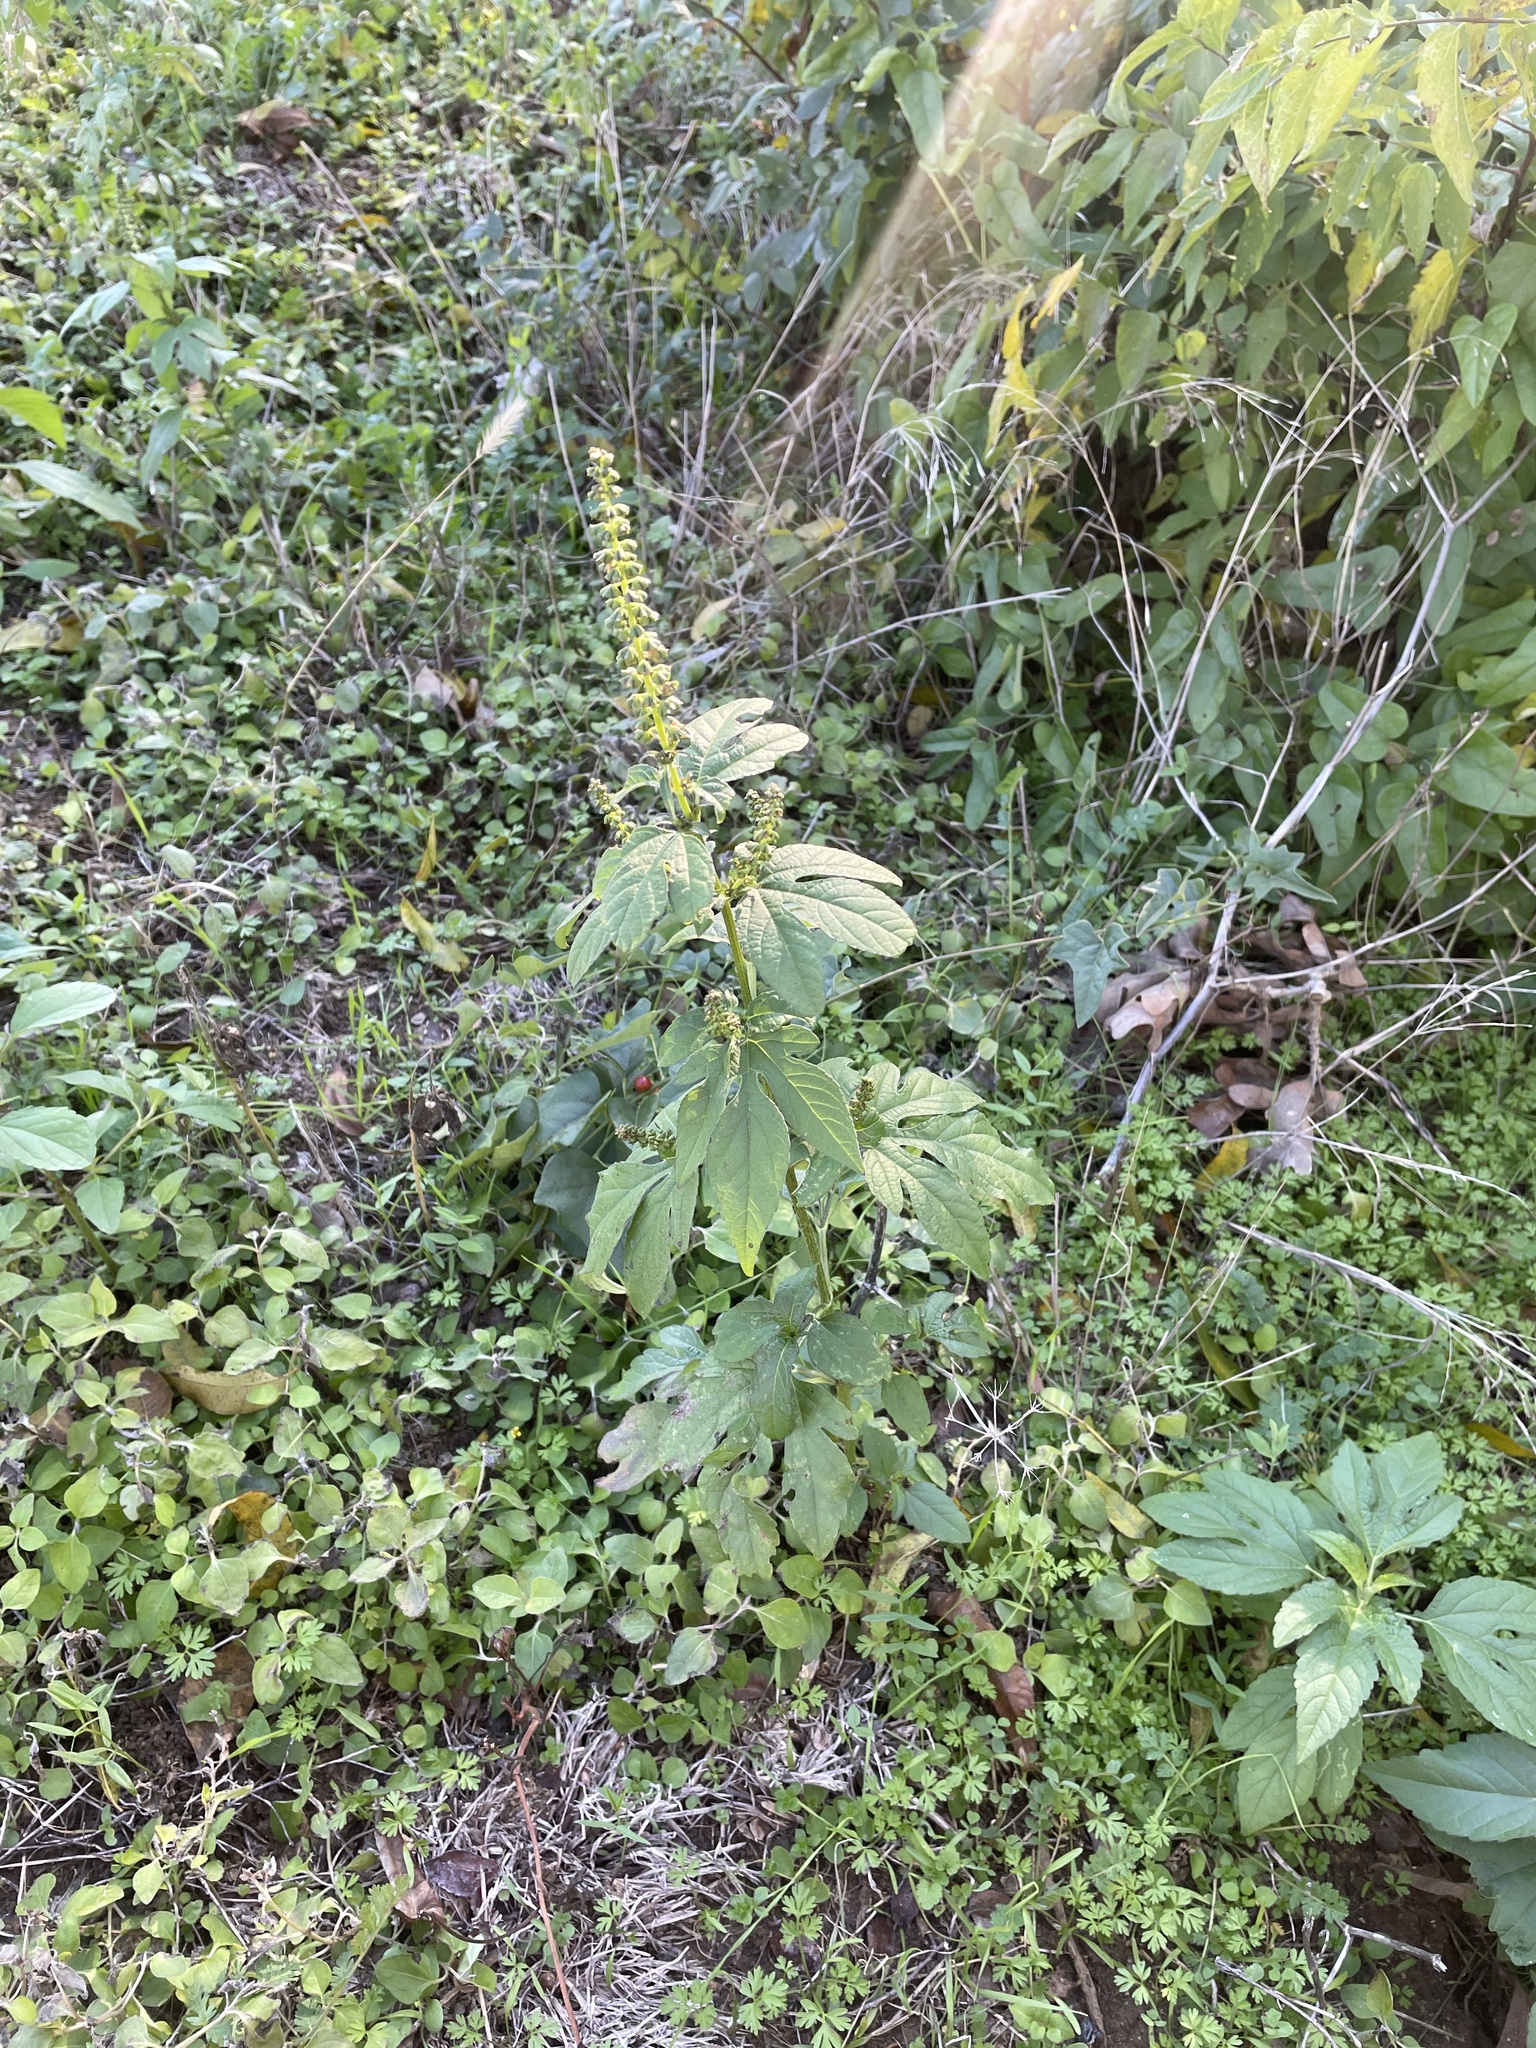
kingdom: Plantae
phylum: Tracheophyta
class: Magnoliopsida
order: Asterales
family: Asteraceae
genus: Ambrosia
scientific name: Ambrosia trifida
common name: Giant ragweed
